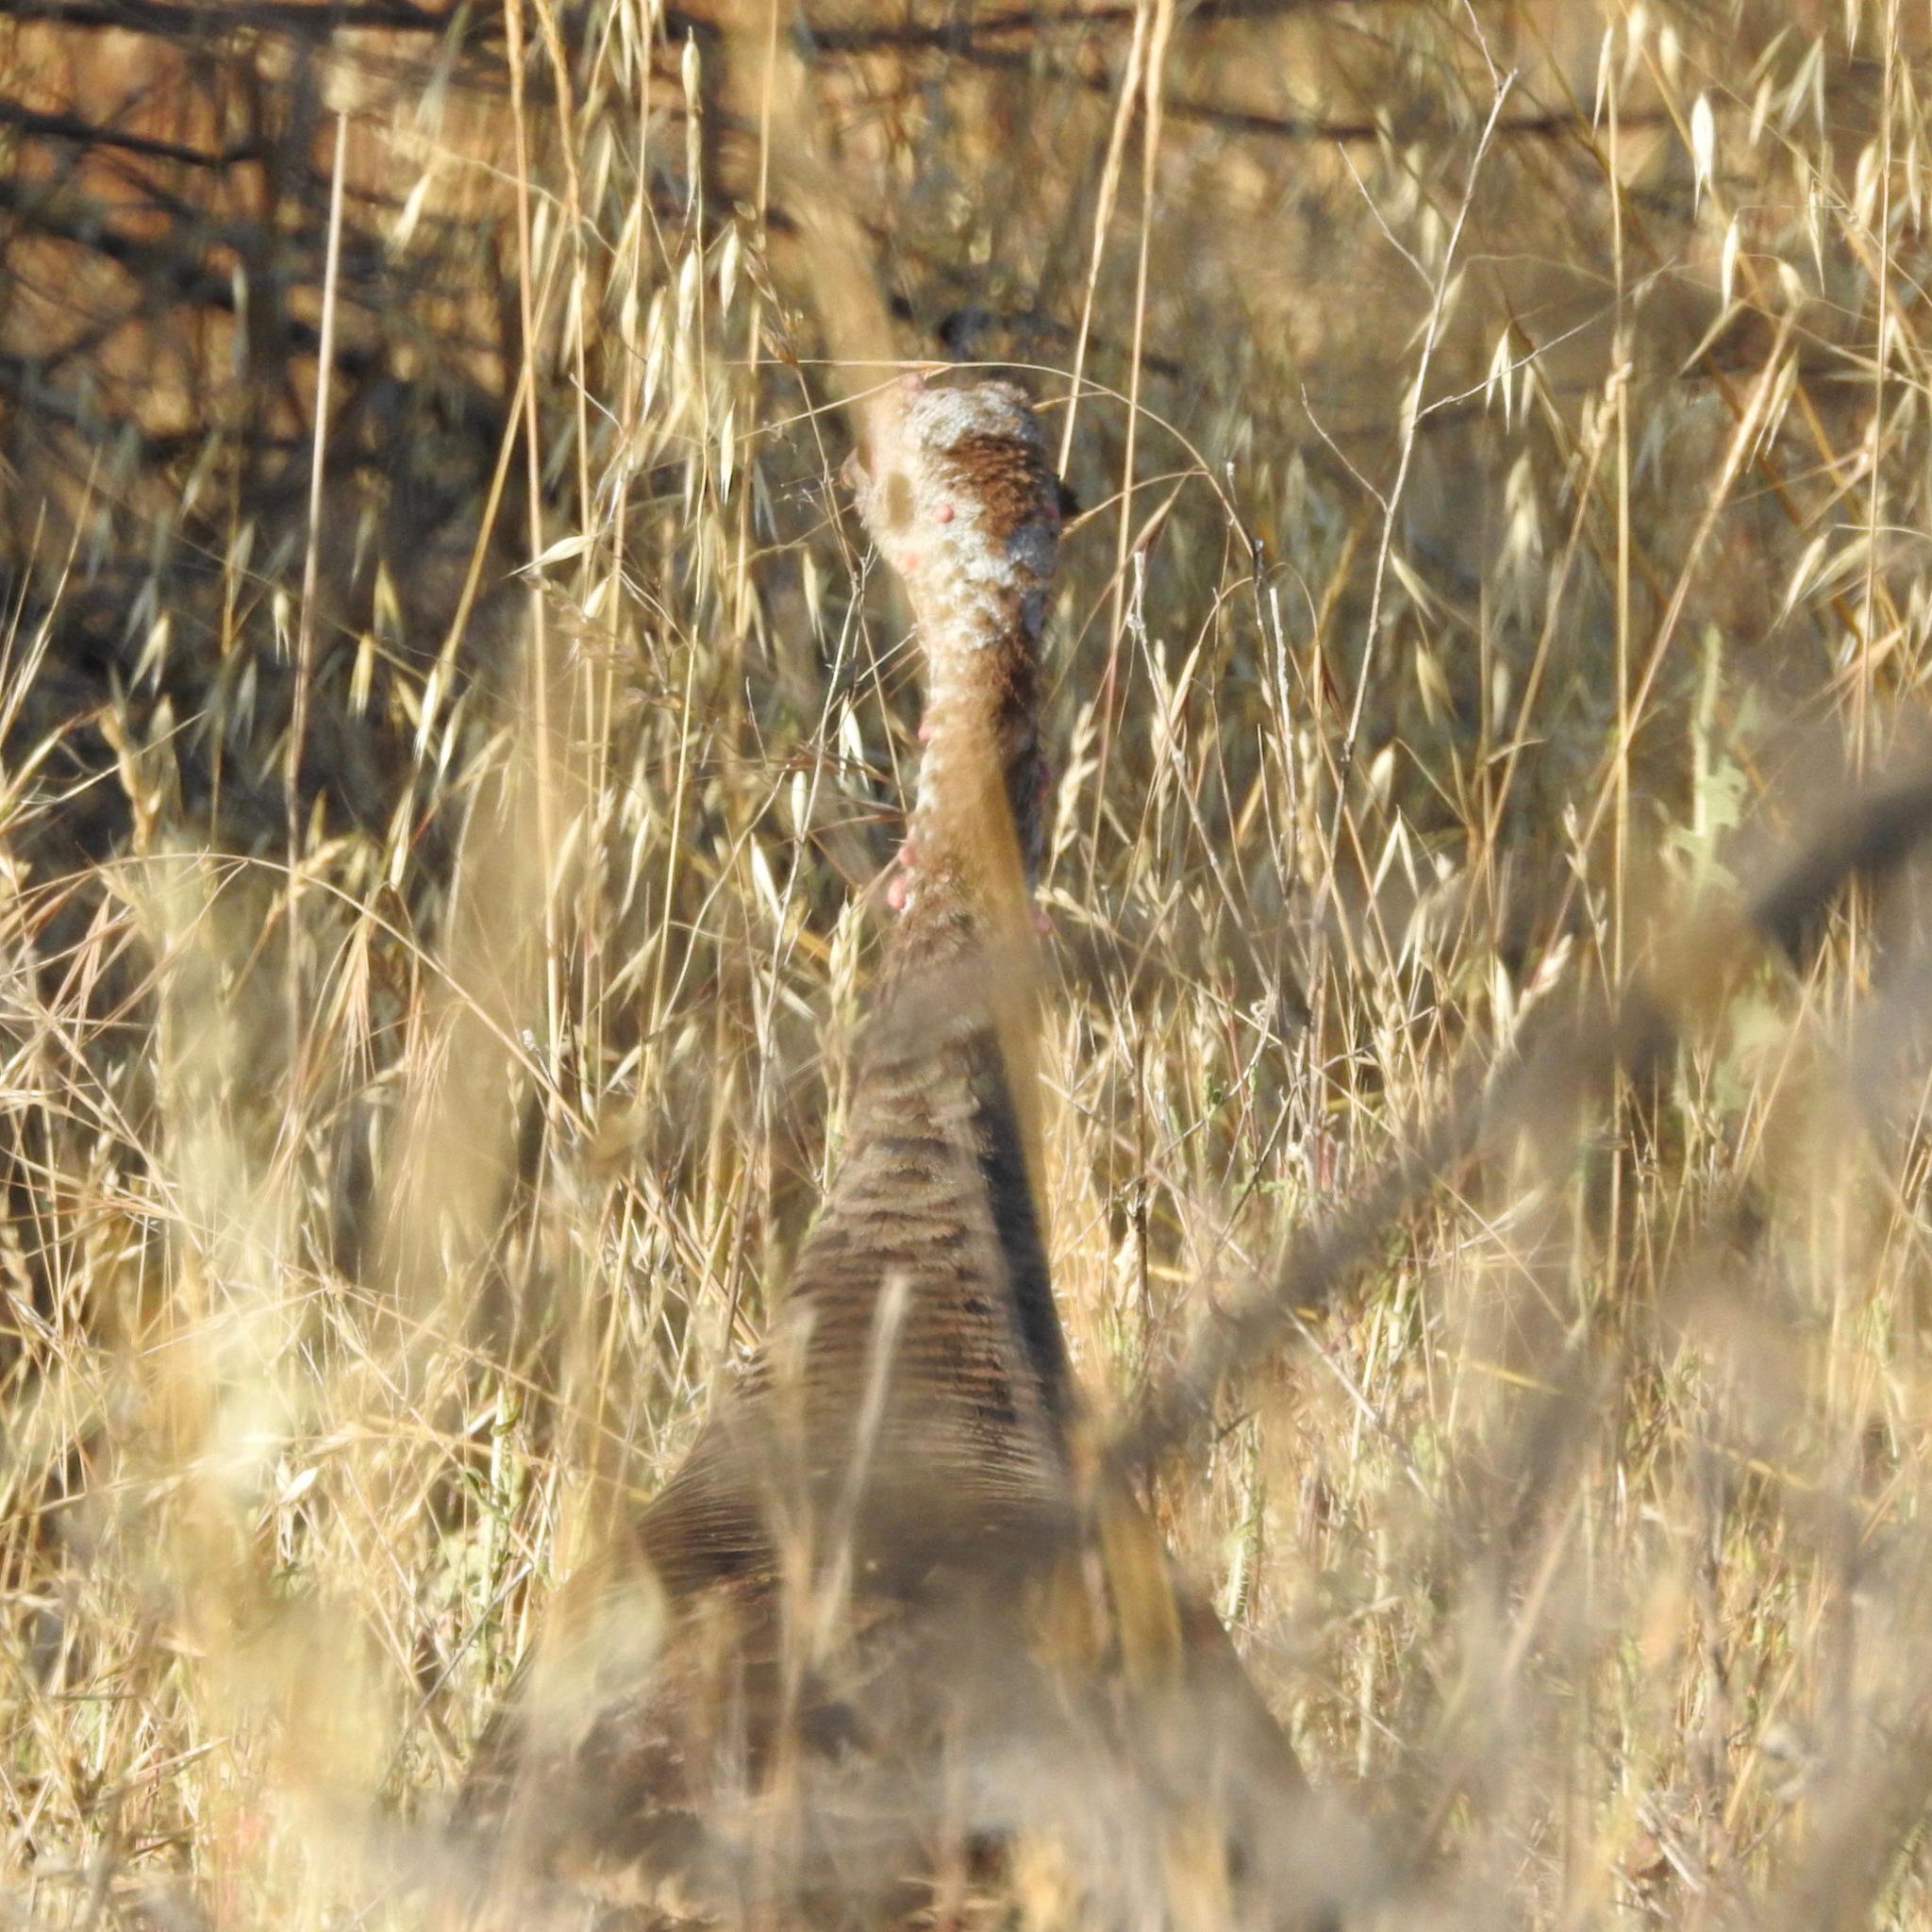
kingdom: Animalia
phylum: Chordata
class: Aves
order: Galliformes
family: Phasianidae
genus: Meleagris
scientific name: Meleagris gallopavo
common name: Wild turkey
